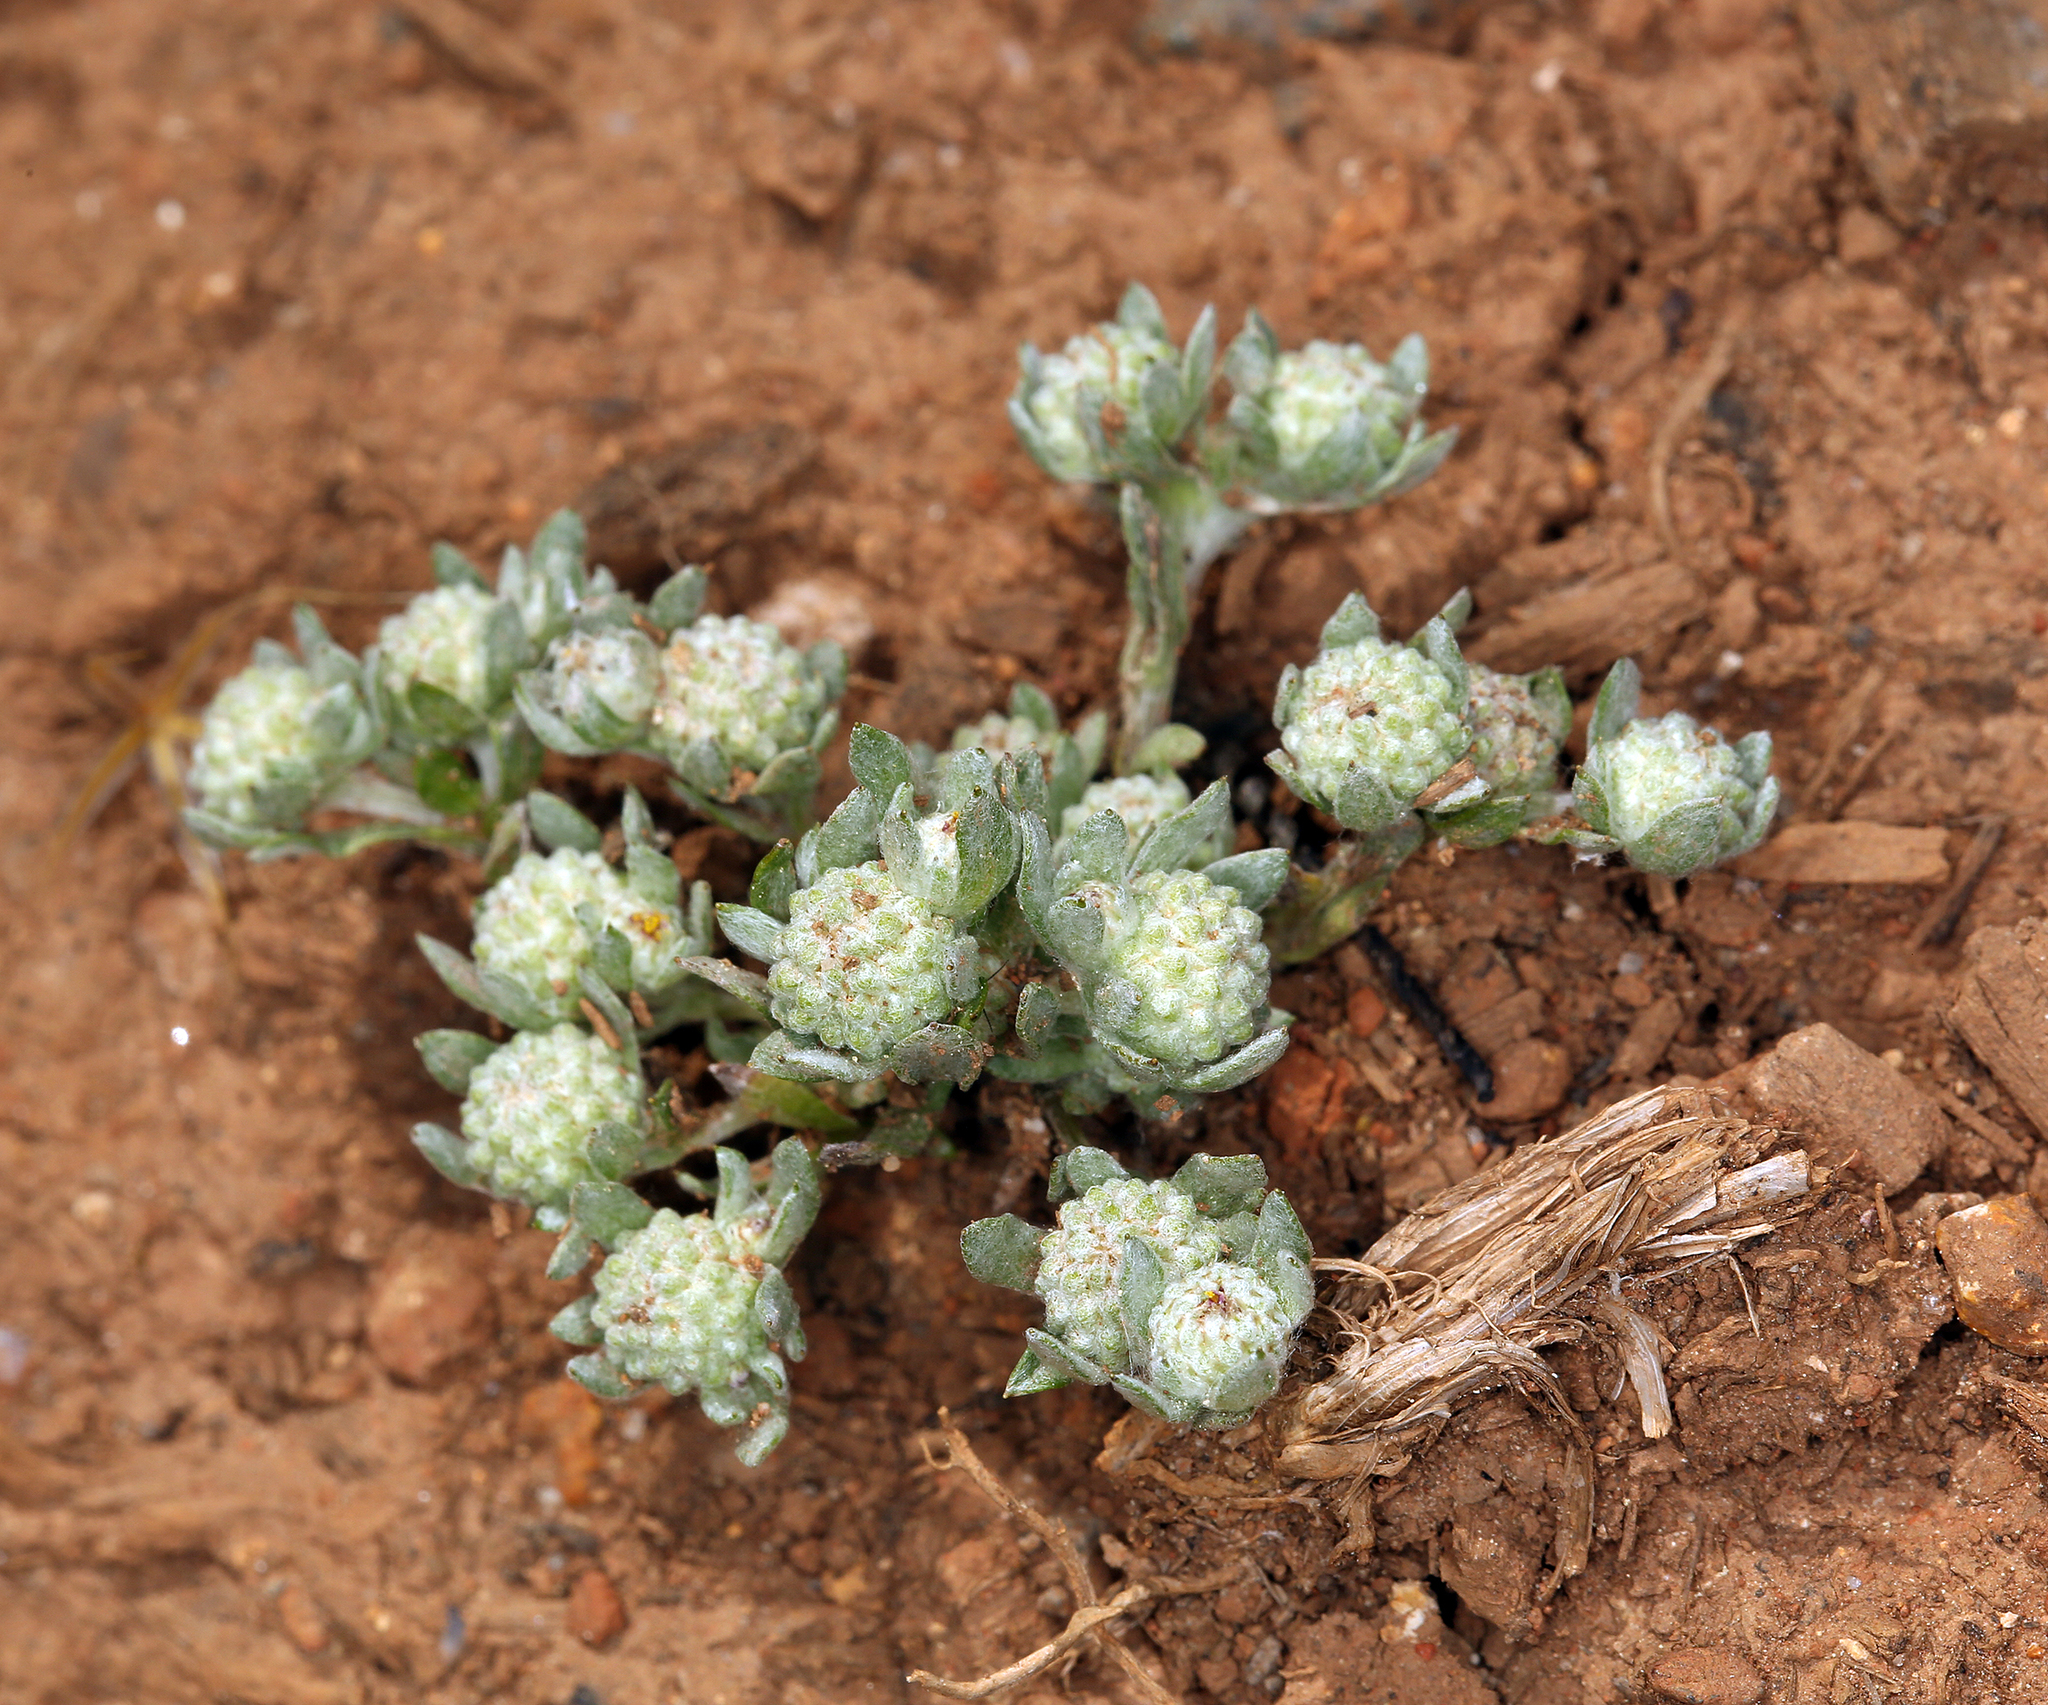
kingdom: Plantae
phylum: Tracheophyta
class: Magnoliopsida
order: Asterales
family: Asteraceae
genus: Psilocarphus
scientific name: Psilocarphus tenellus
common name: Slender woolly-marbles
